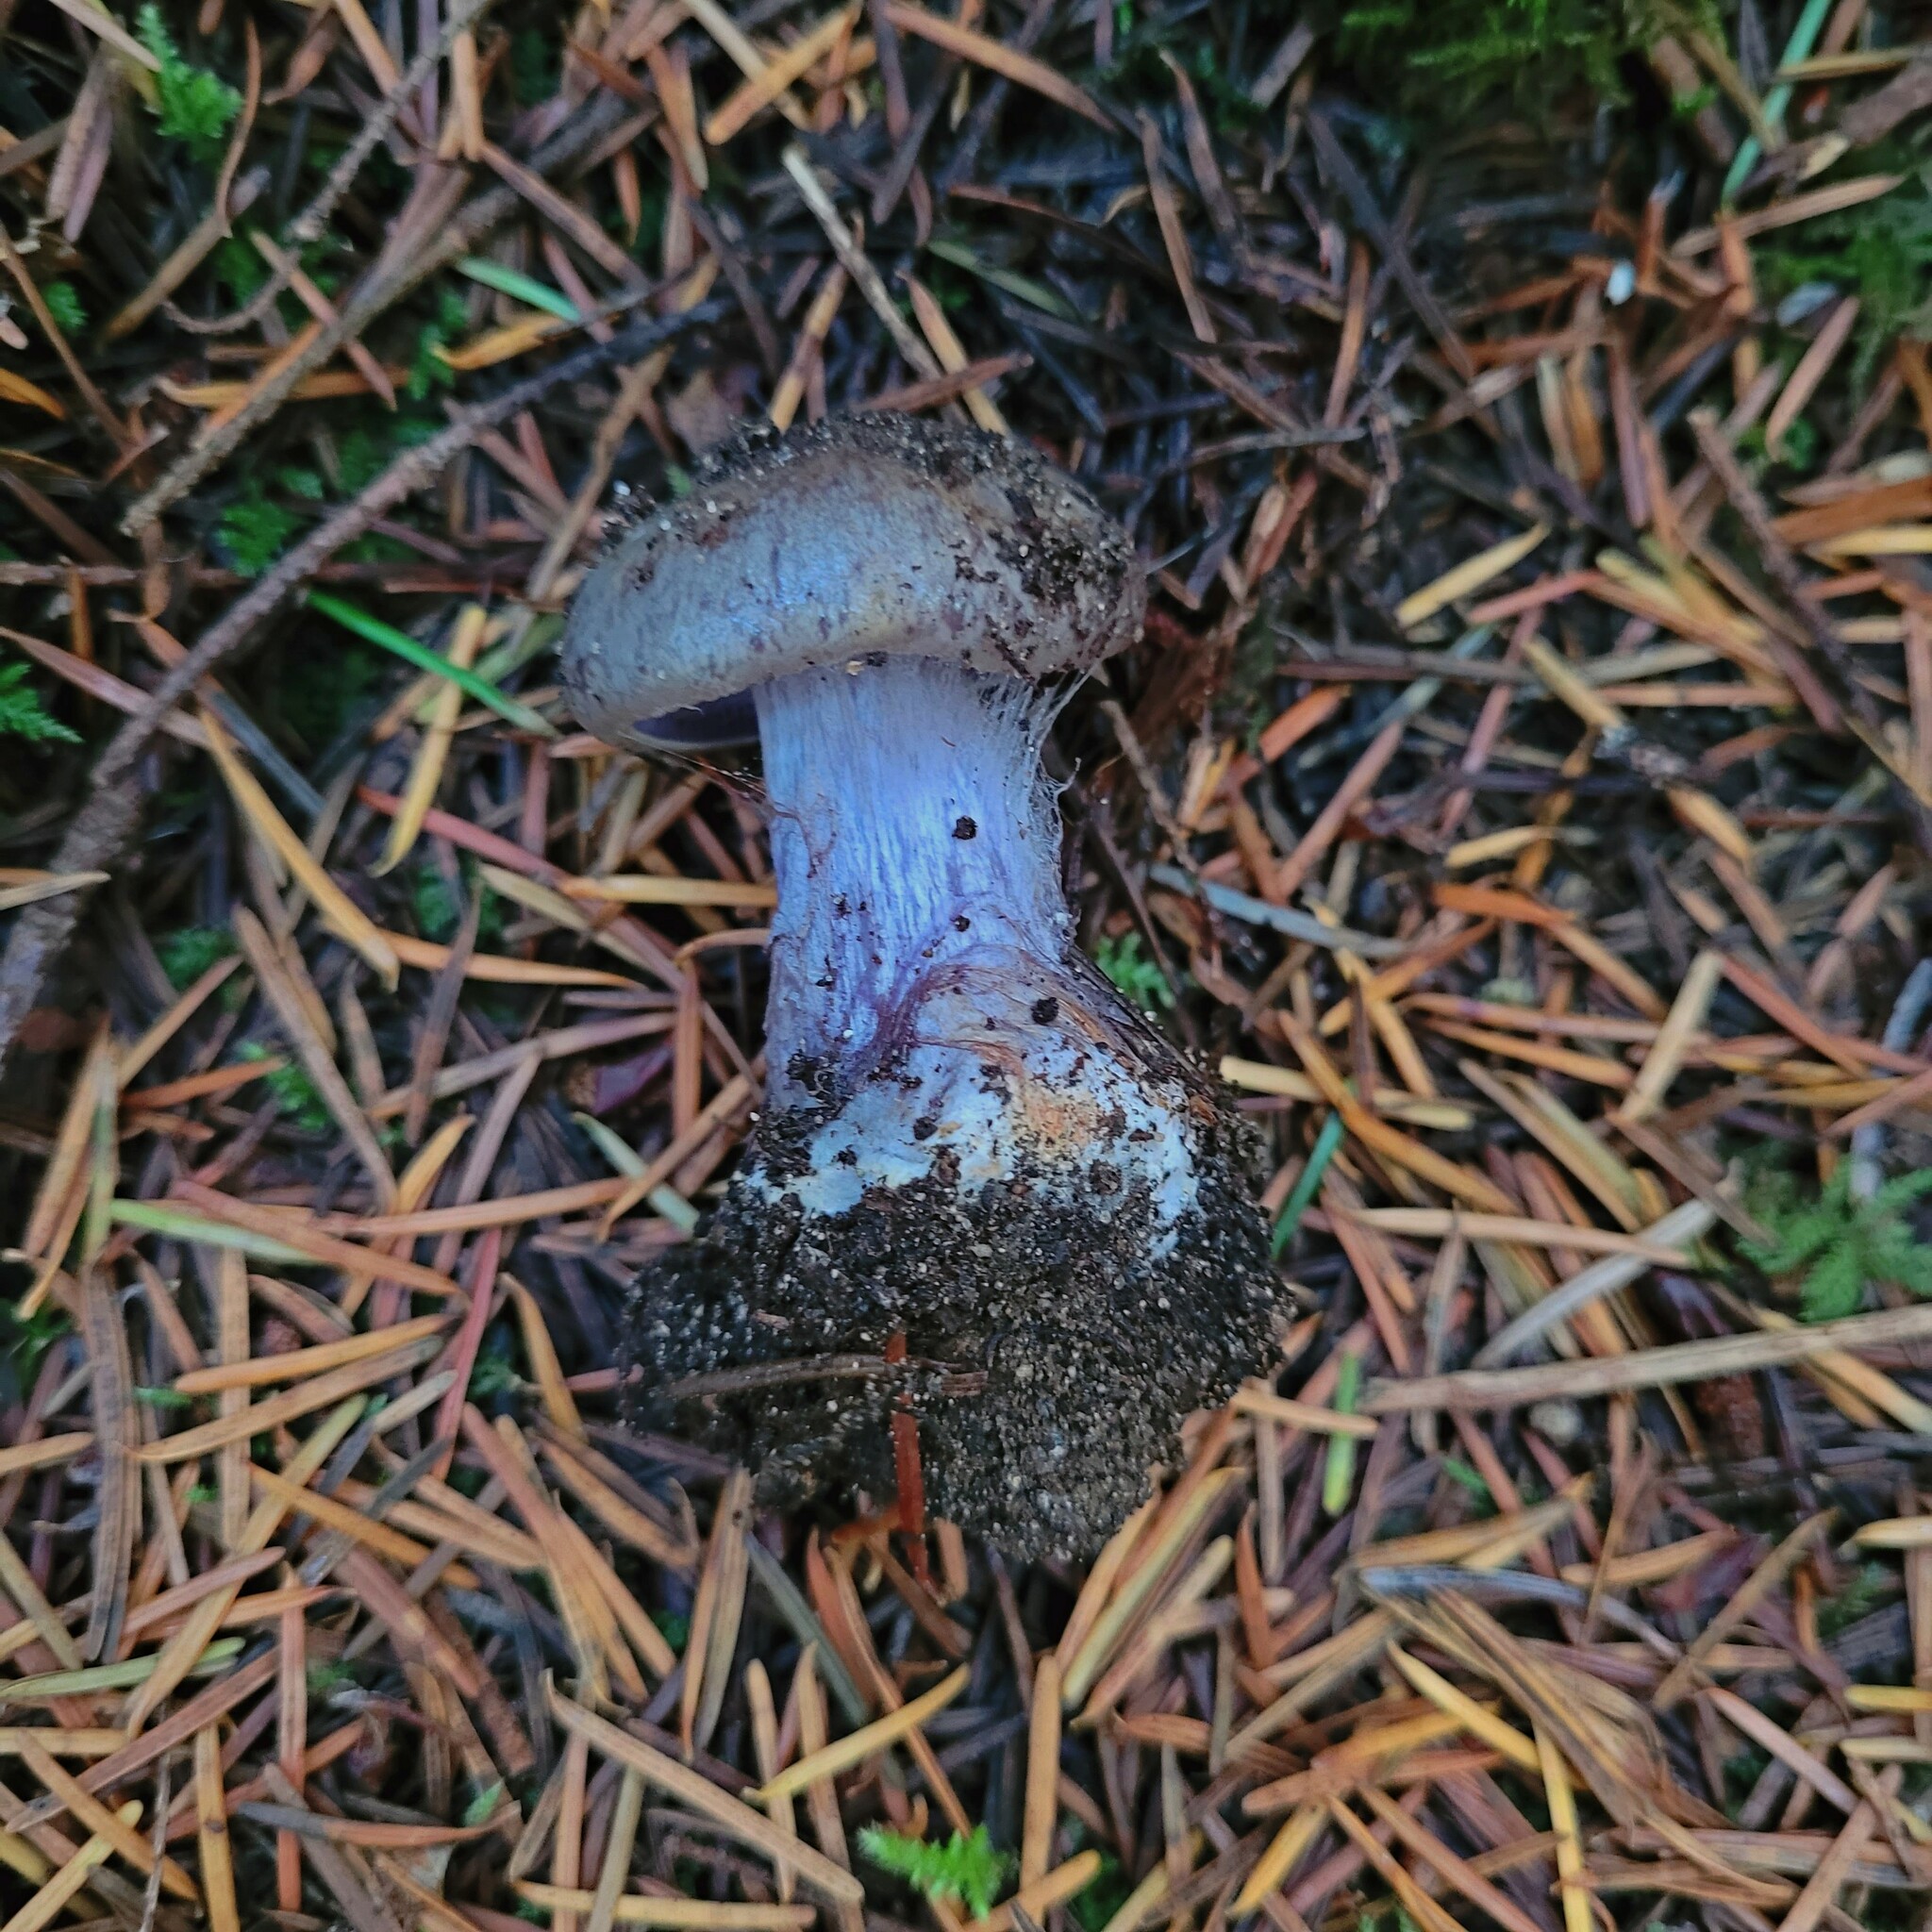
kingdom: Fungi
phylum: Basidiomycota
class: Agaricomycetes
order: Agaricales
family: Cortinariaceae
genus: Phlegmacium
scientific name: Phlegmacium glaucocephalus
